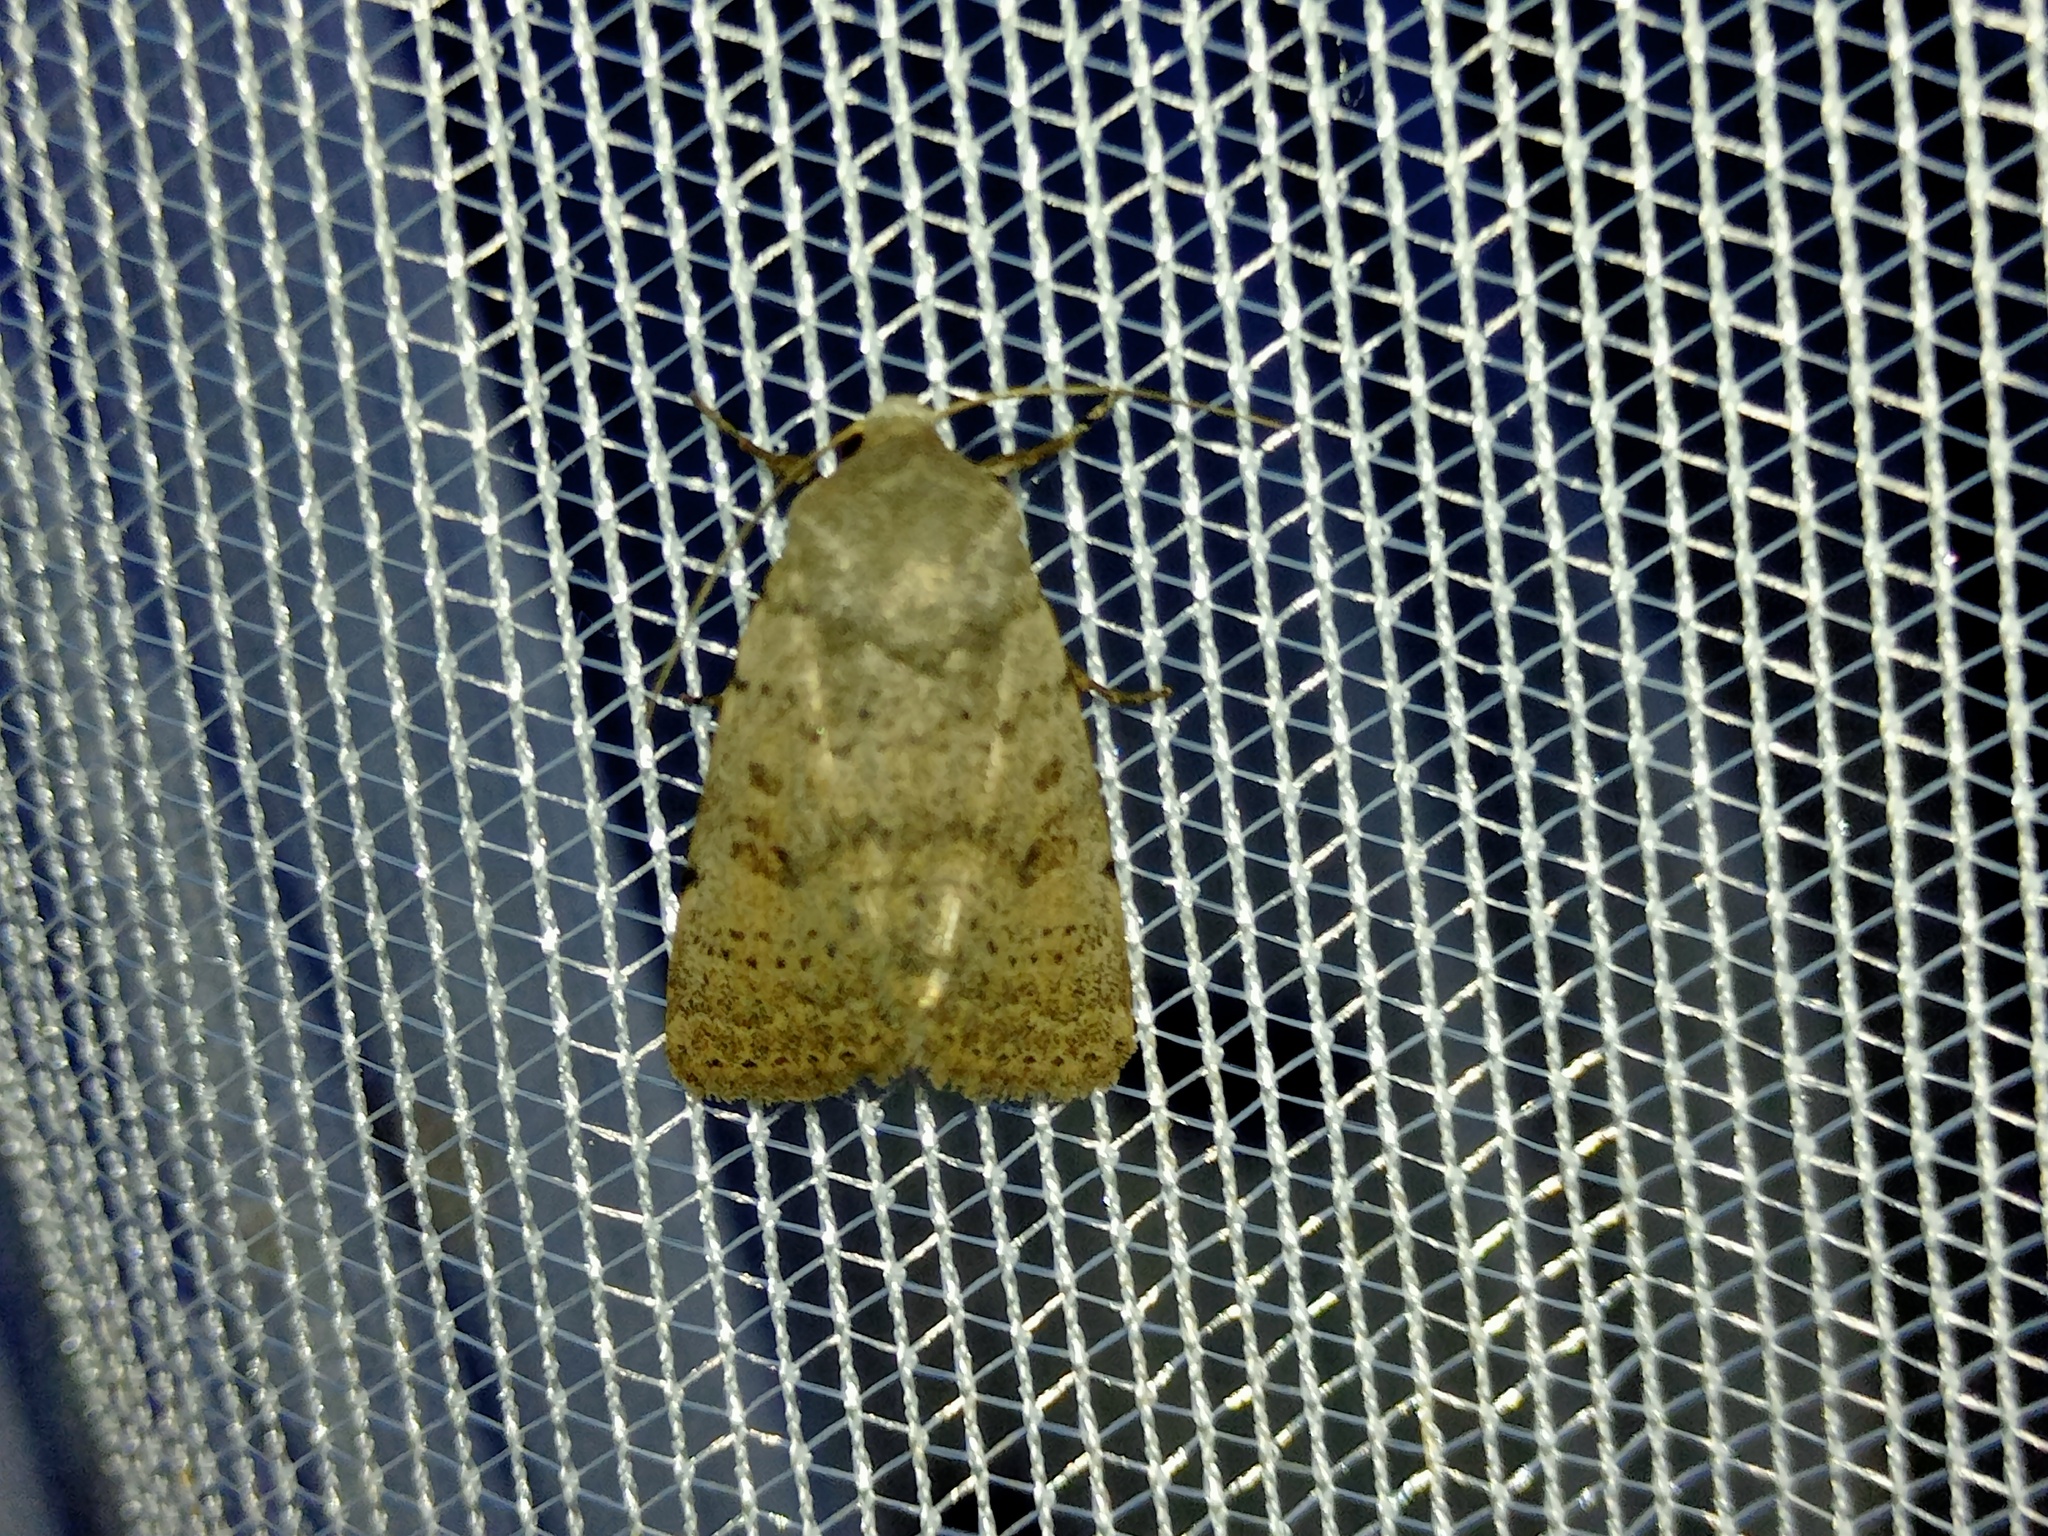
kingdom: Animalia
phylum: Arthropoda
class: Insecta
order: Lepidoptera
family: Noctuidae
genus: Hoplodrina
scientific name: Hoplodrina respersa
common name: Sprinkled rustic
